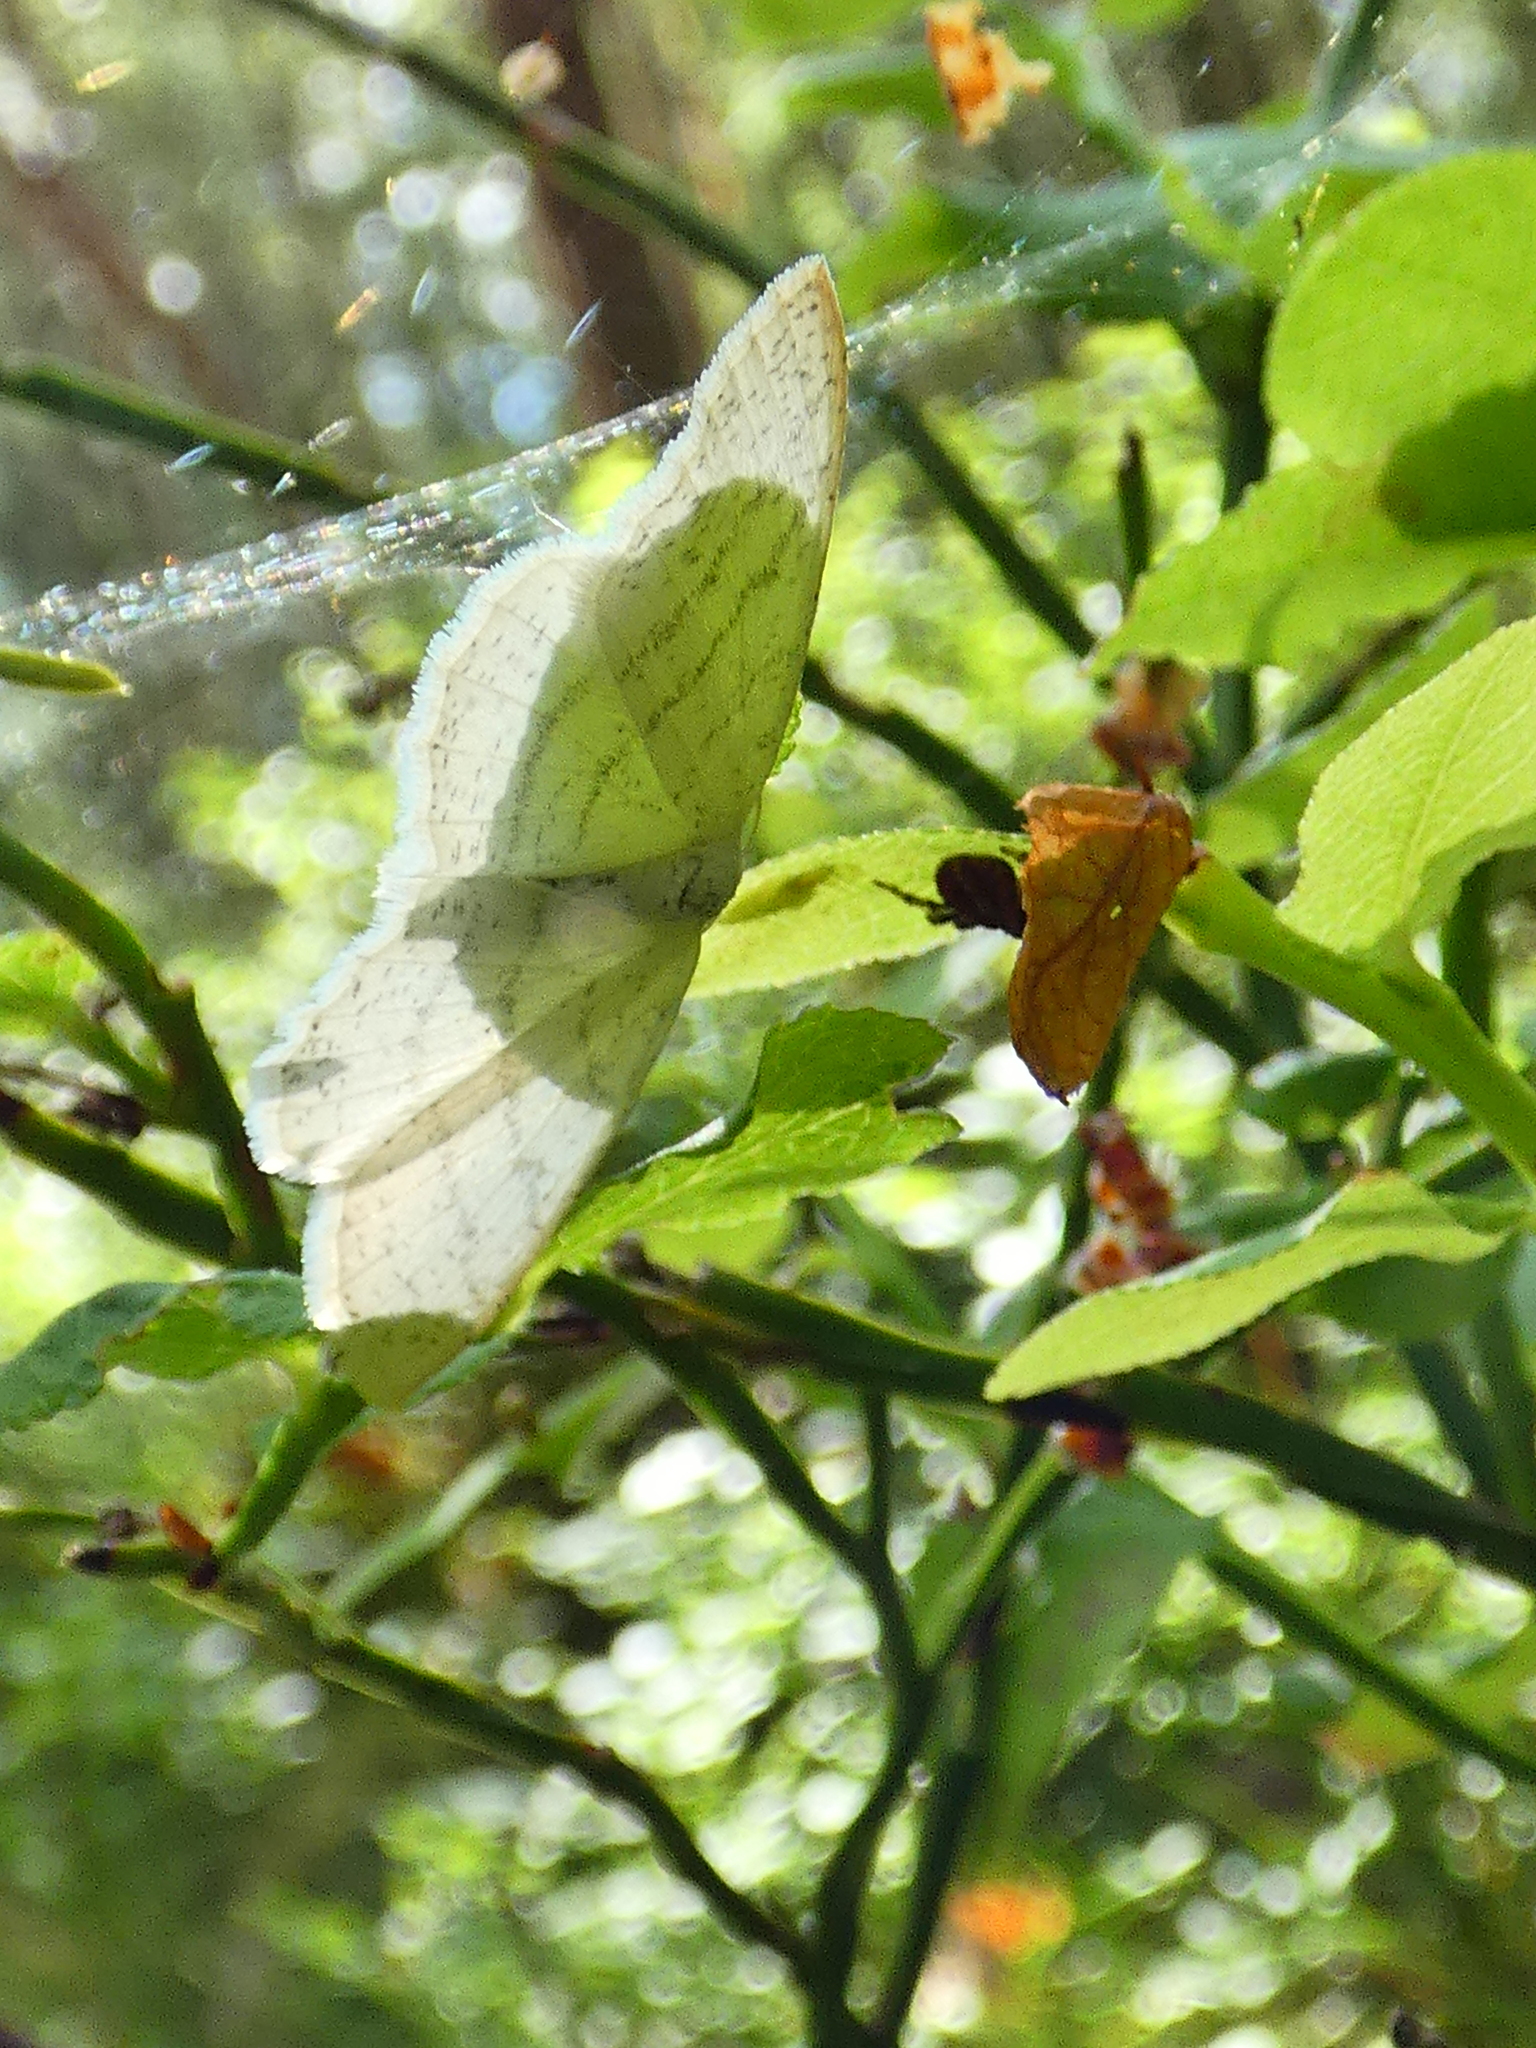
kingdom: Animalia
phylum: Arthropoda
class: Insecta
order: Lepidoptera
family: Geometridae
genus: Cabera
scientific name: Cabera pusaria
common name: Common white wave
